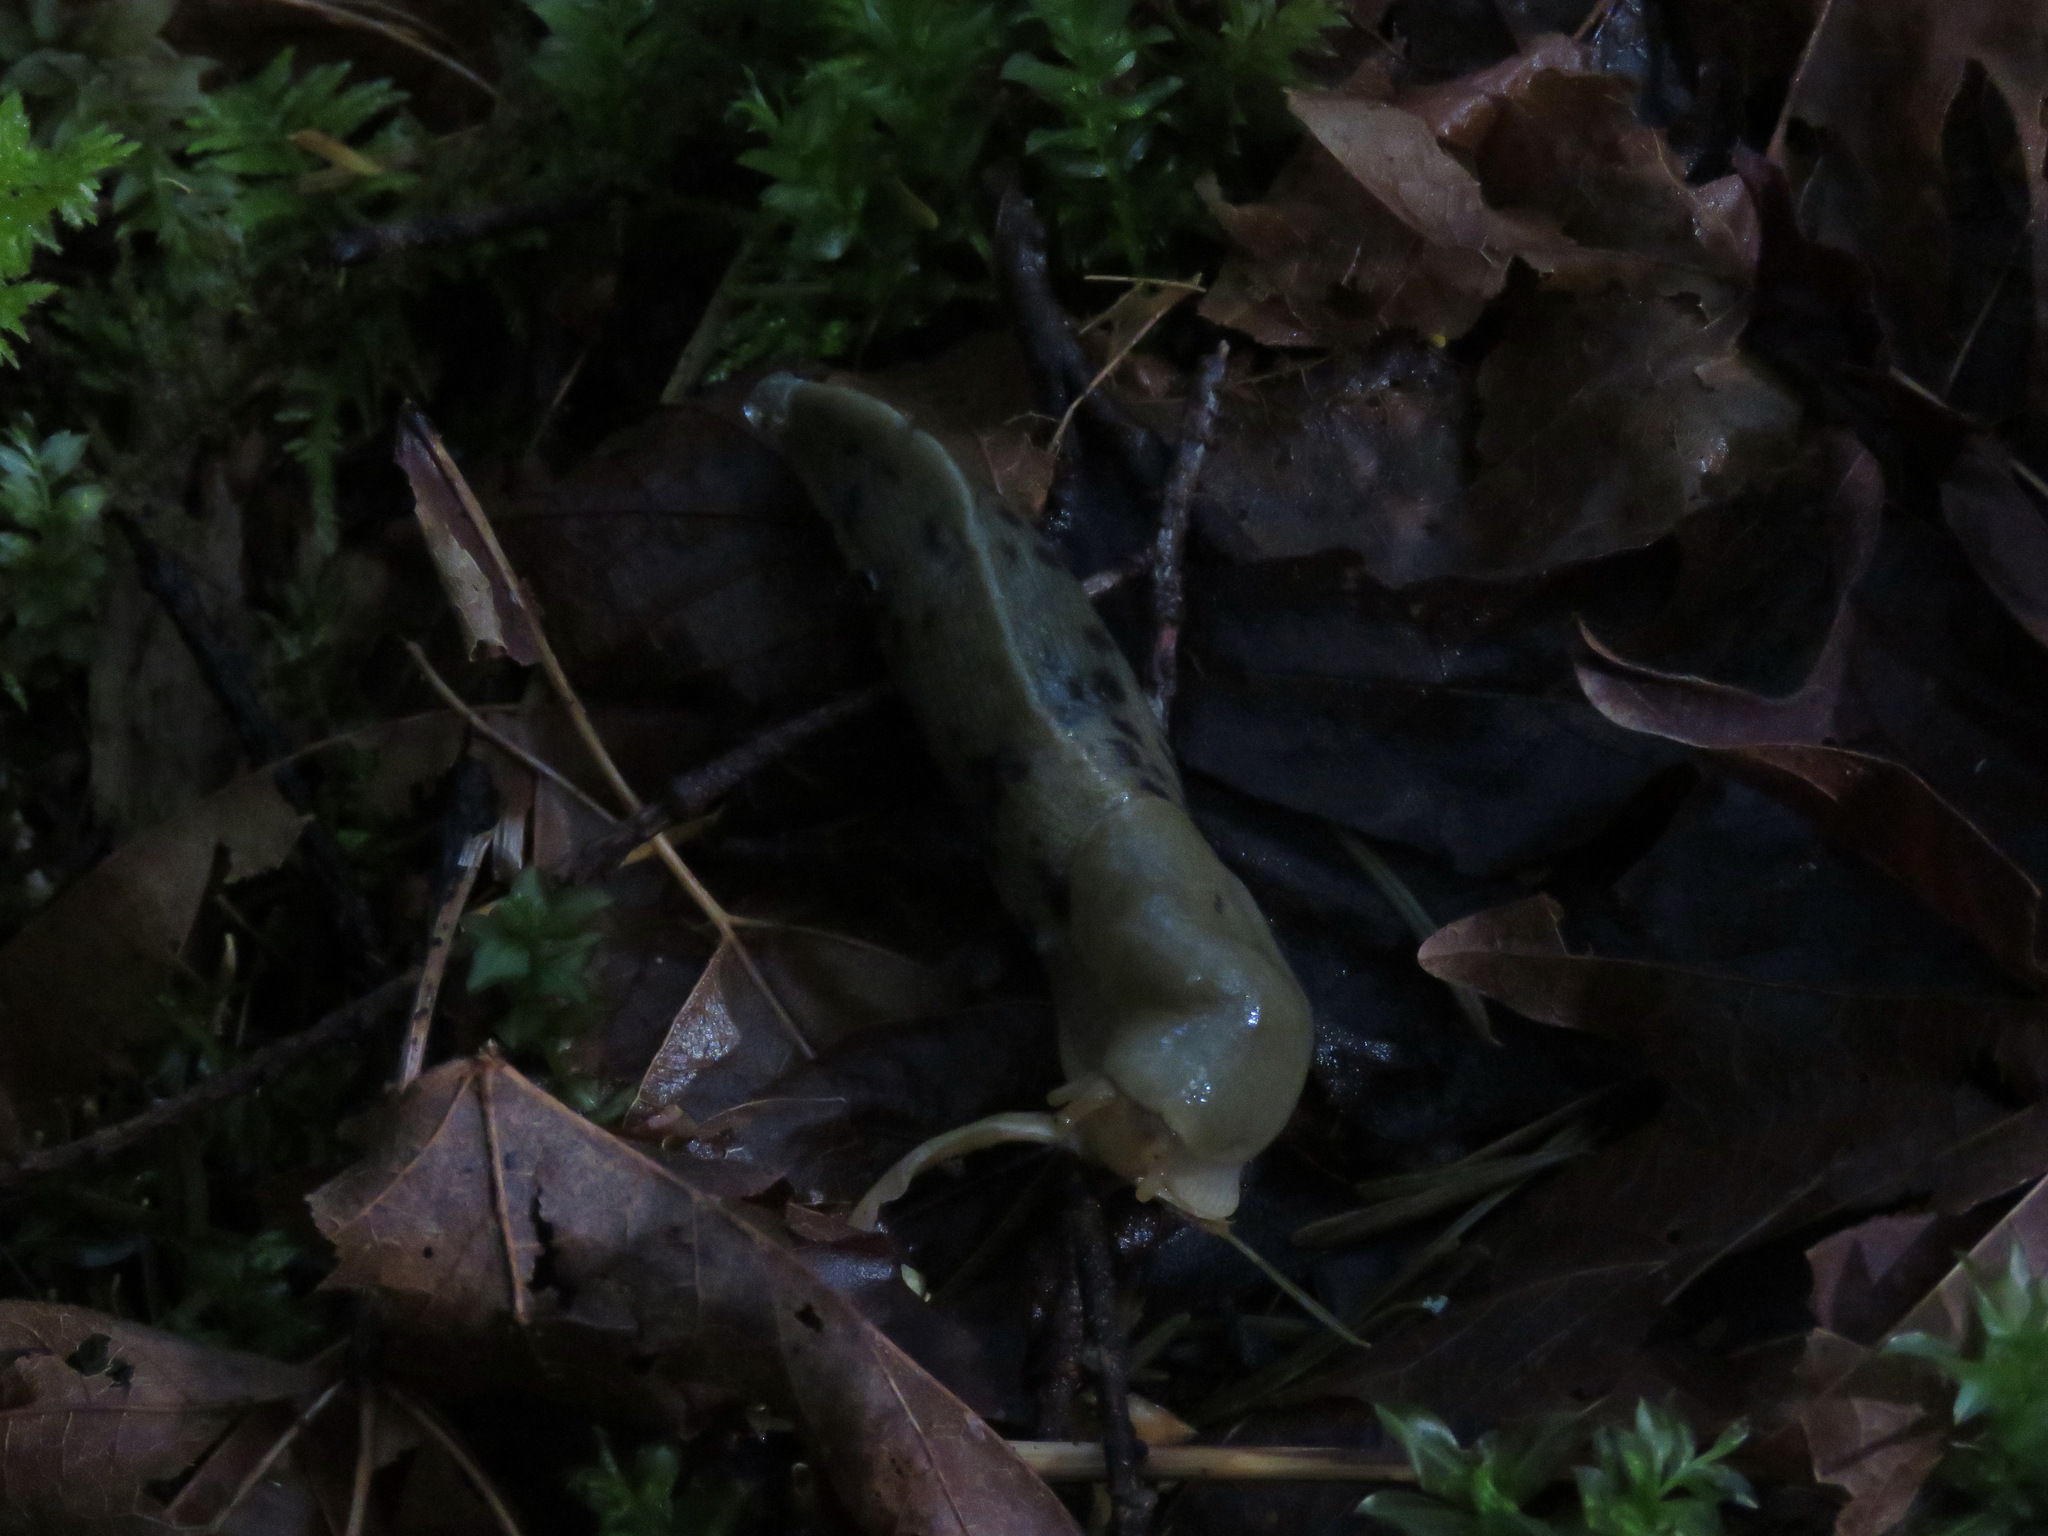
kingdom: Animalia
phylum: Mollusca
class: Gastropoda
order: Stylommatophora
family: Ariolimacidae
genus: Ariolimax
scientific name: Ariolimax columbianus
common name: Pacific banana slug
